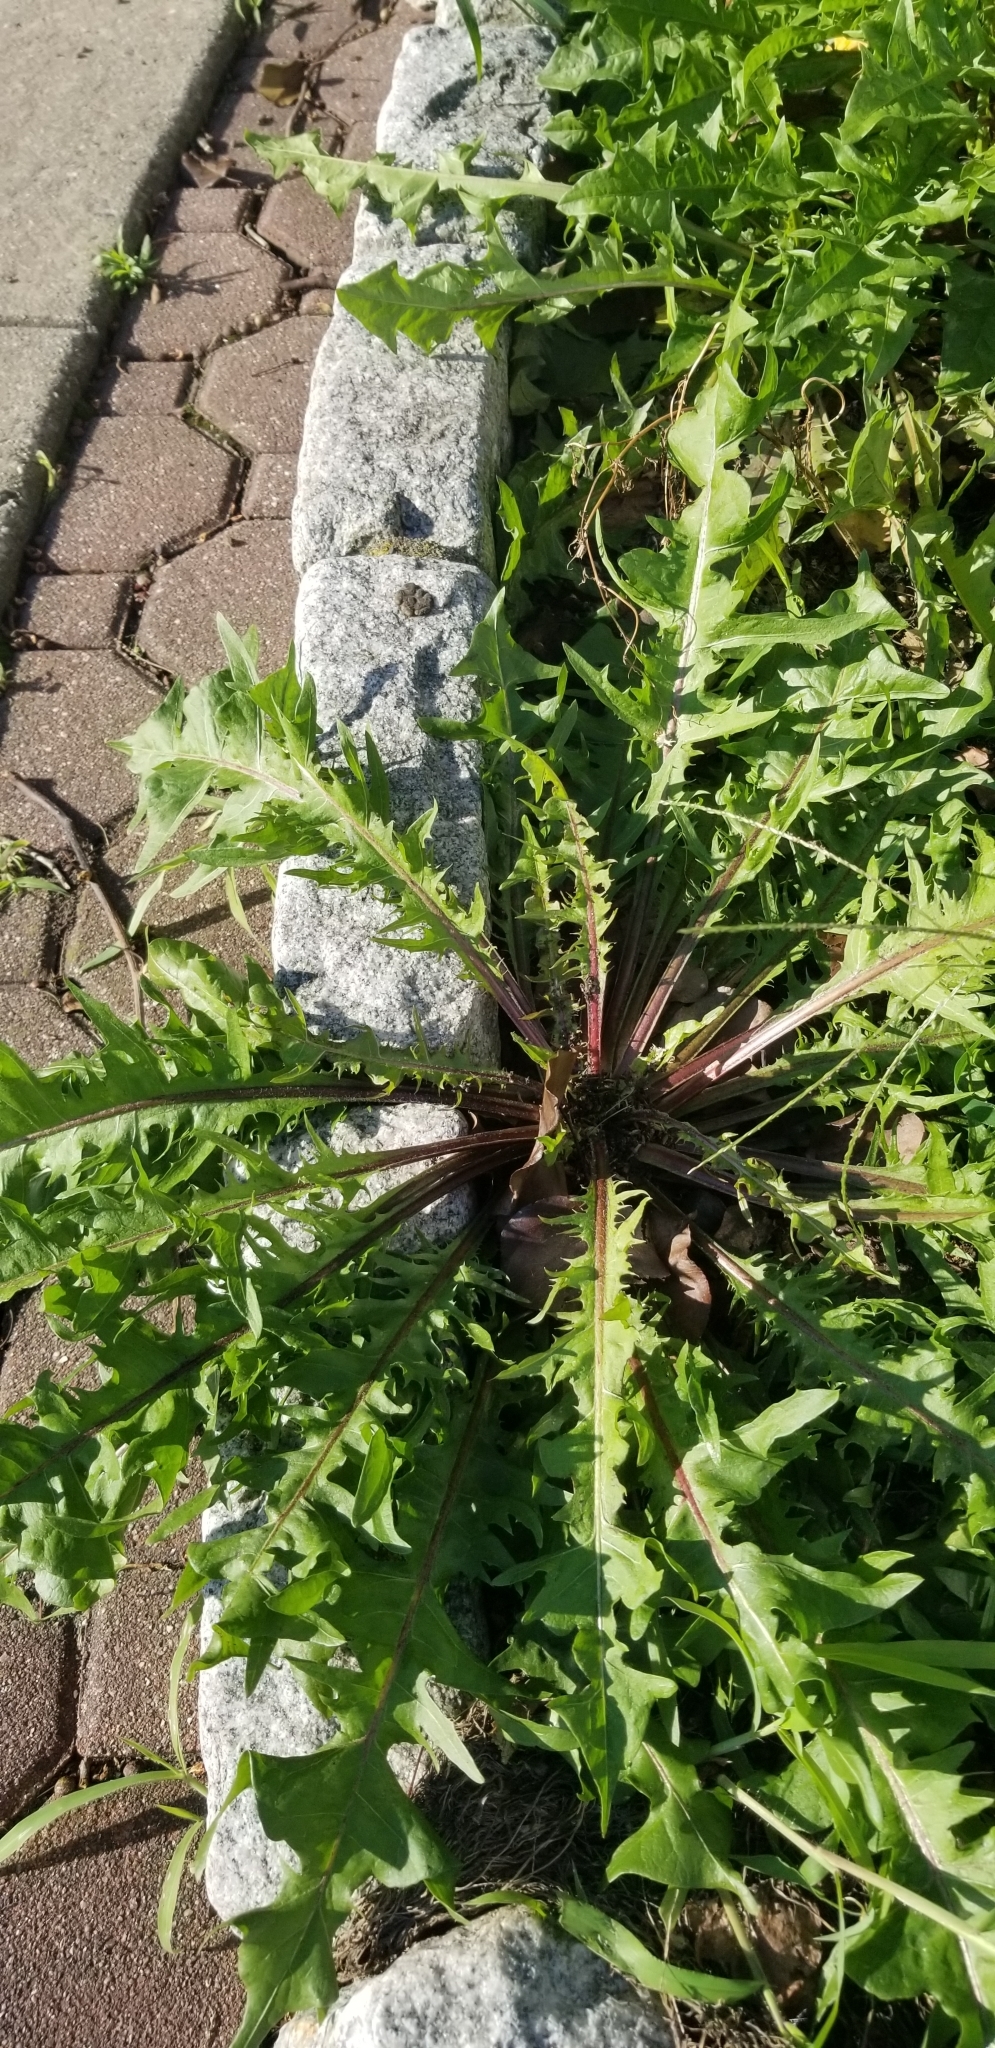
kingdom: Plantae
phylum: Tracheophyta
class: Magnoliopsida
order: Asterales
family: Asteraceae
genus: Taraxacum
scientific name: Taraxacum officinale
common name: Common dandelion
